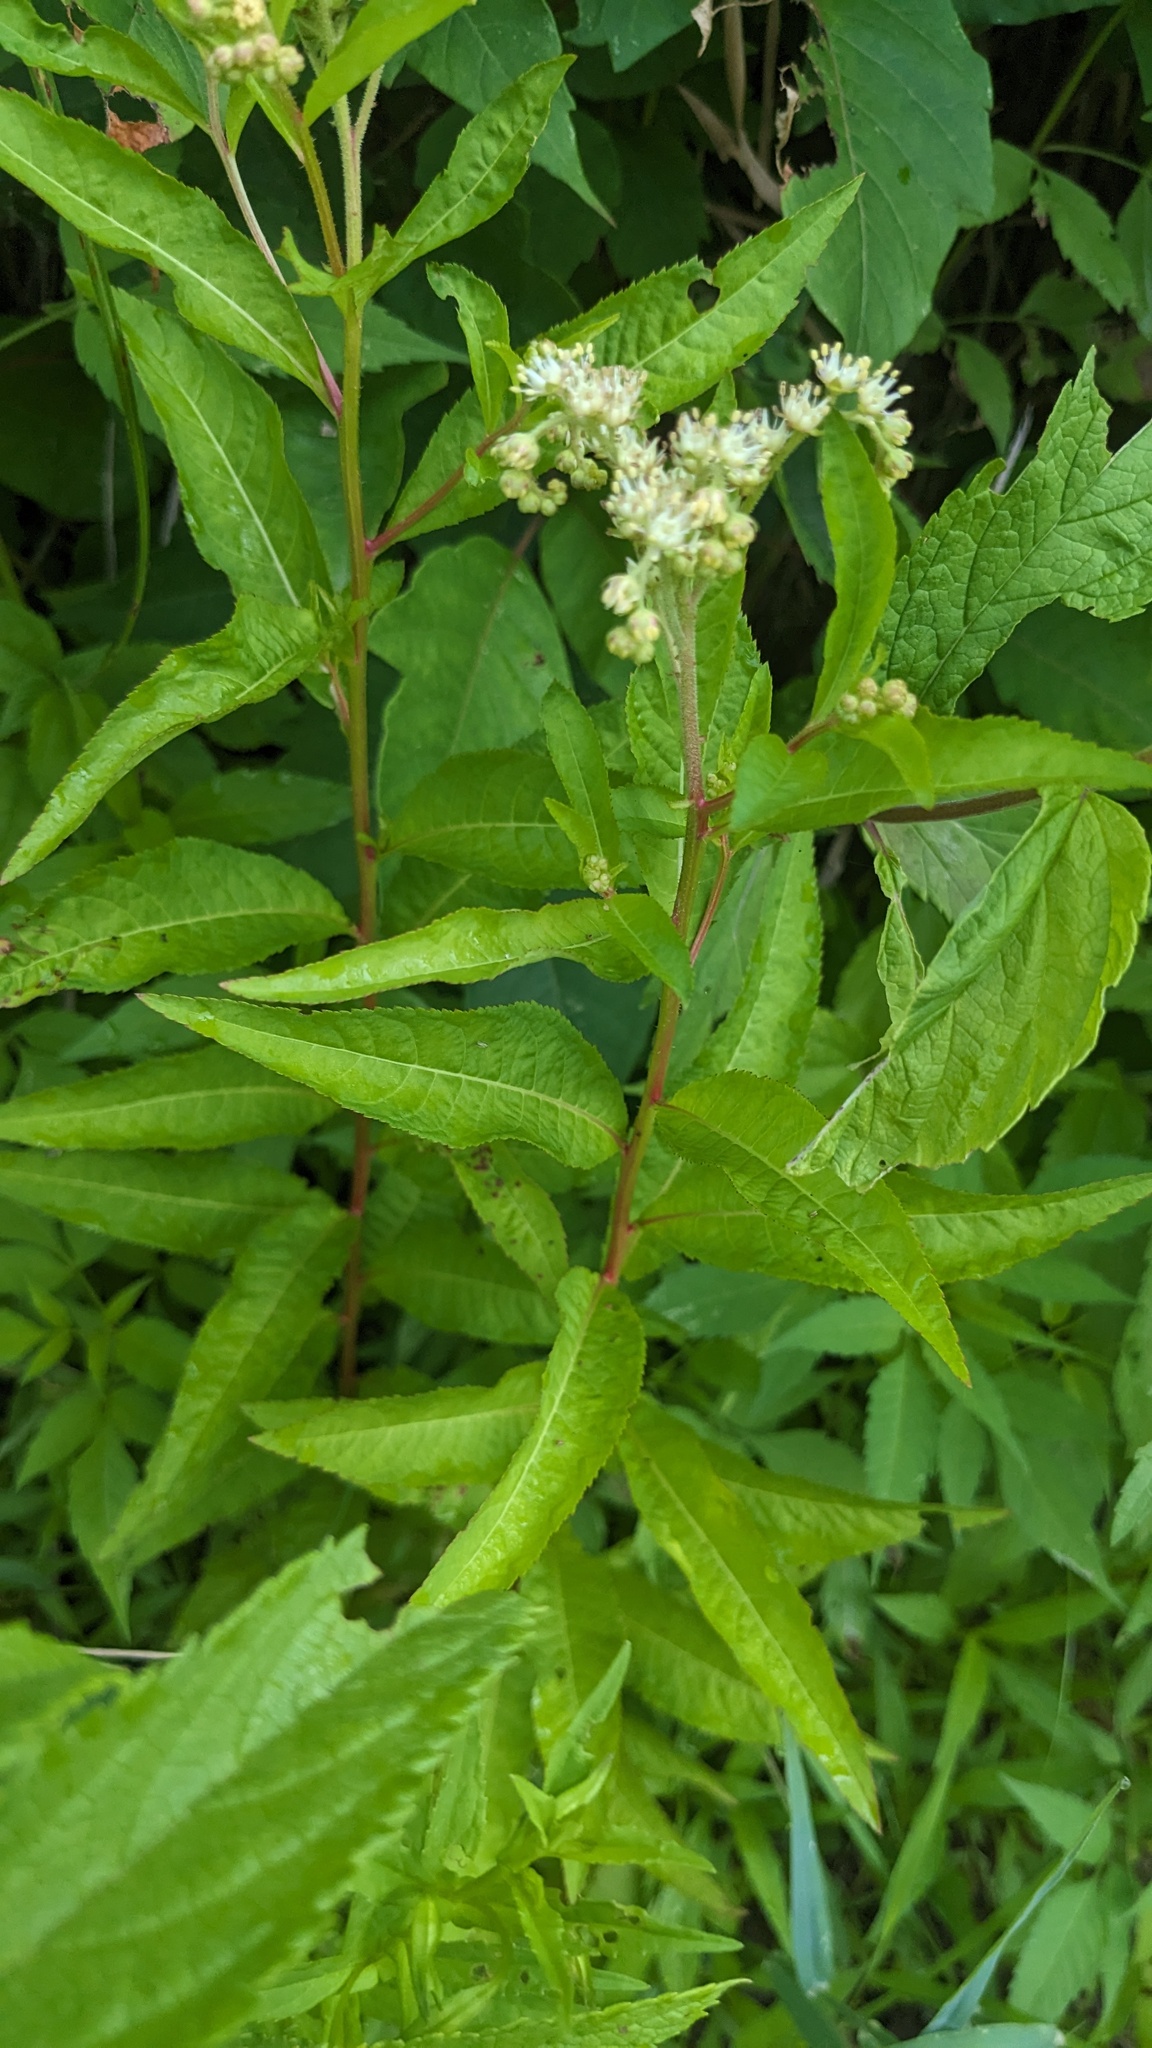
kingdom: Plantae
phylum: Tracheophyta
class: Magnoliopsida
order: Saxifragales
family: Penthoraceae
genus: Penthorum
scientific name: Penthorum sedoides
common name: Ditch stonecrop
